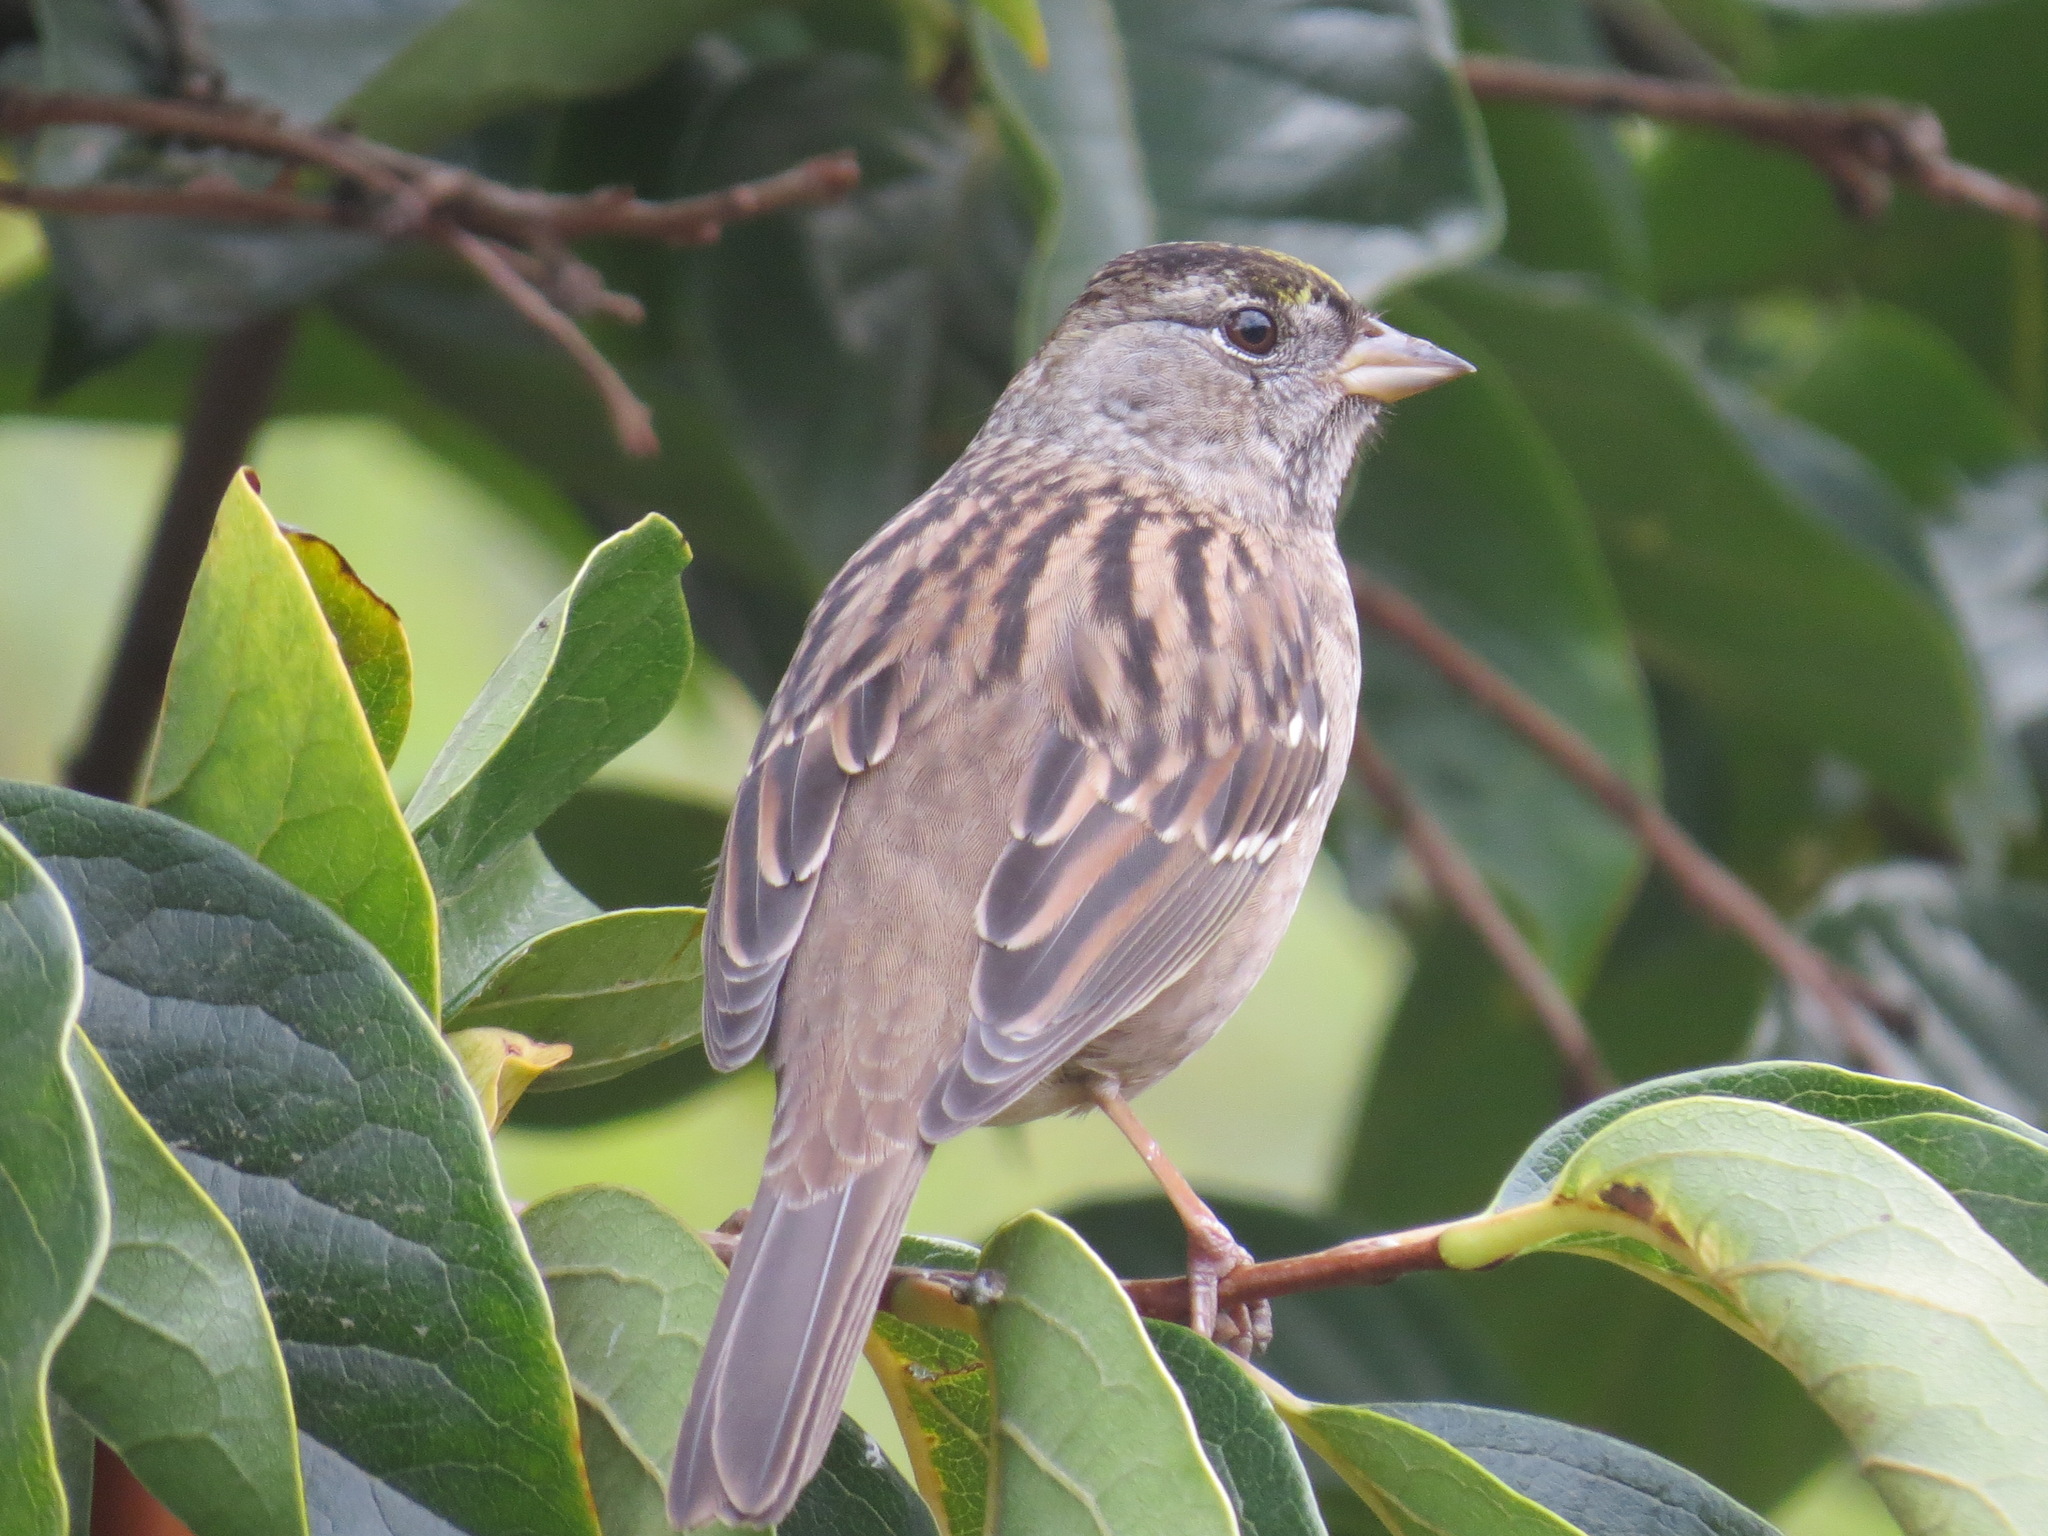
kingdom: Animalia
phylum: Chordata
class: Aves
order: Passeriformes
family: Passerellidae
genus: Zonotrichia
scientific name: Zonotrichia atricapilla
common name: Golden-crowned sparrow
